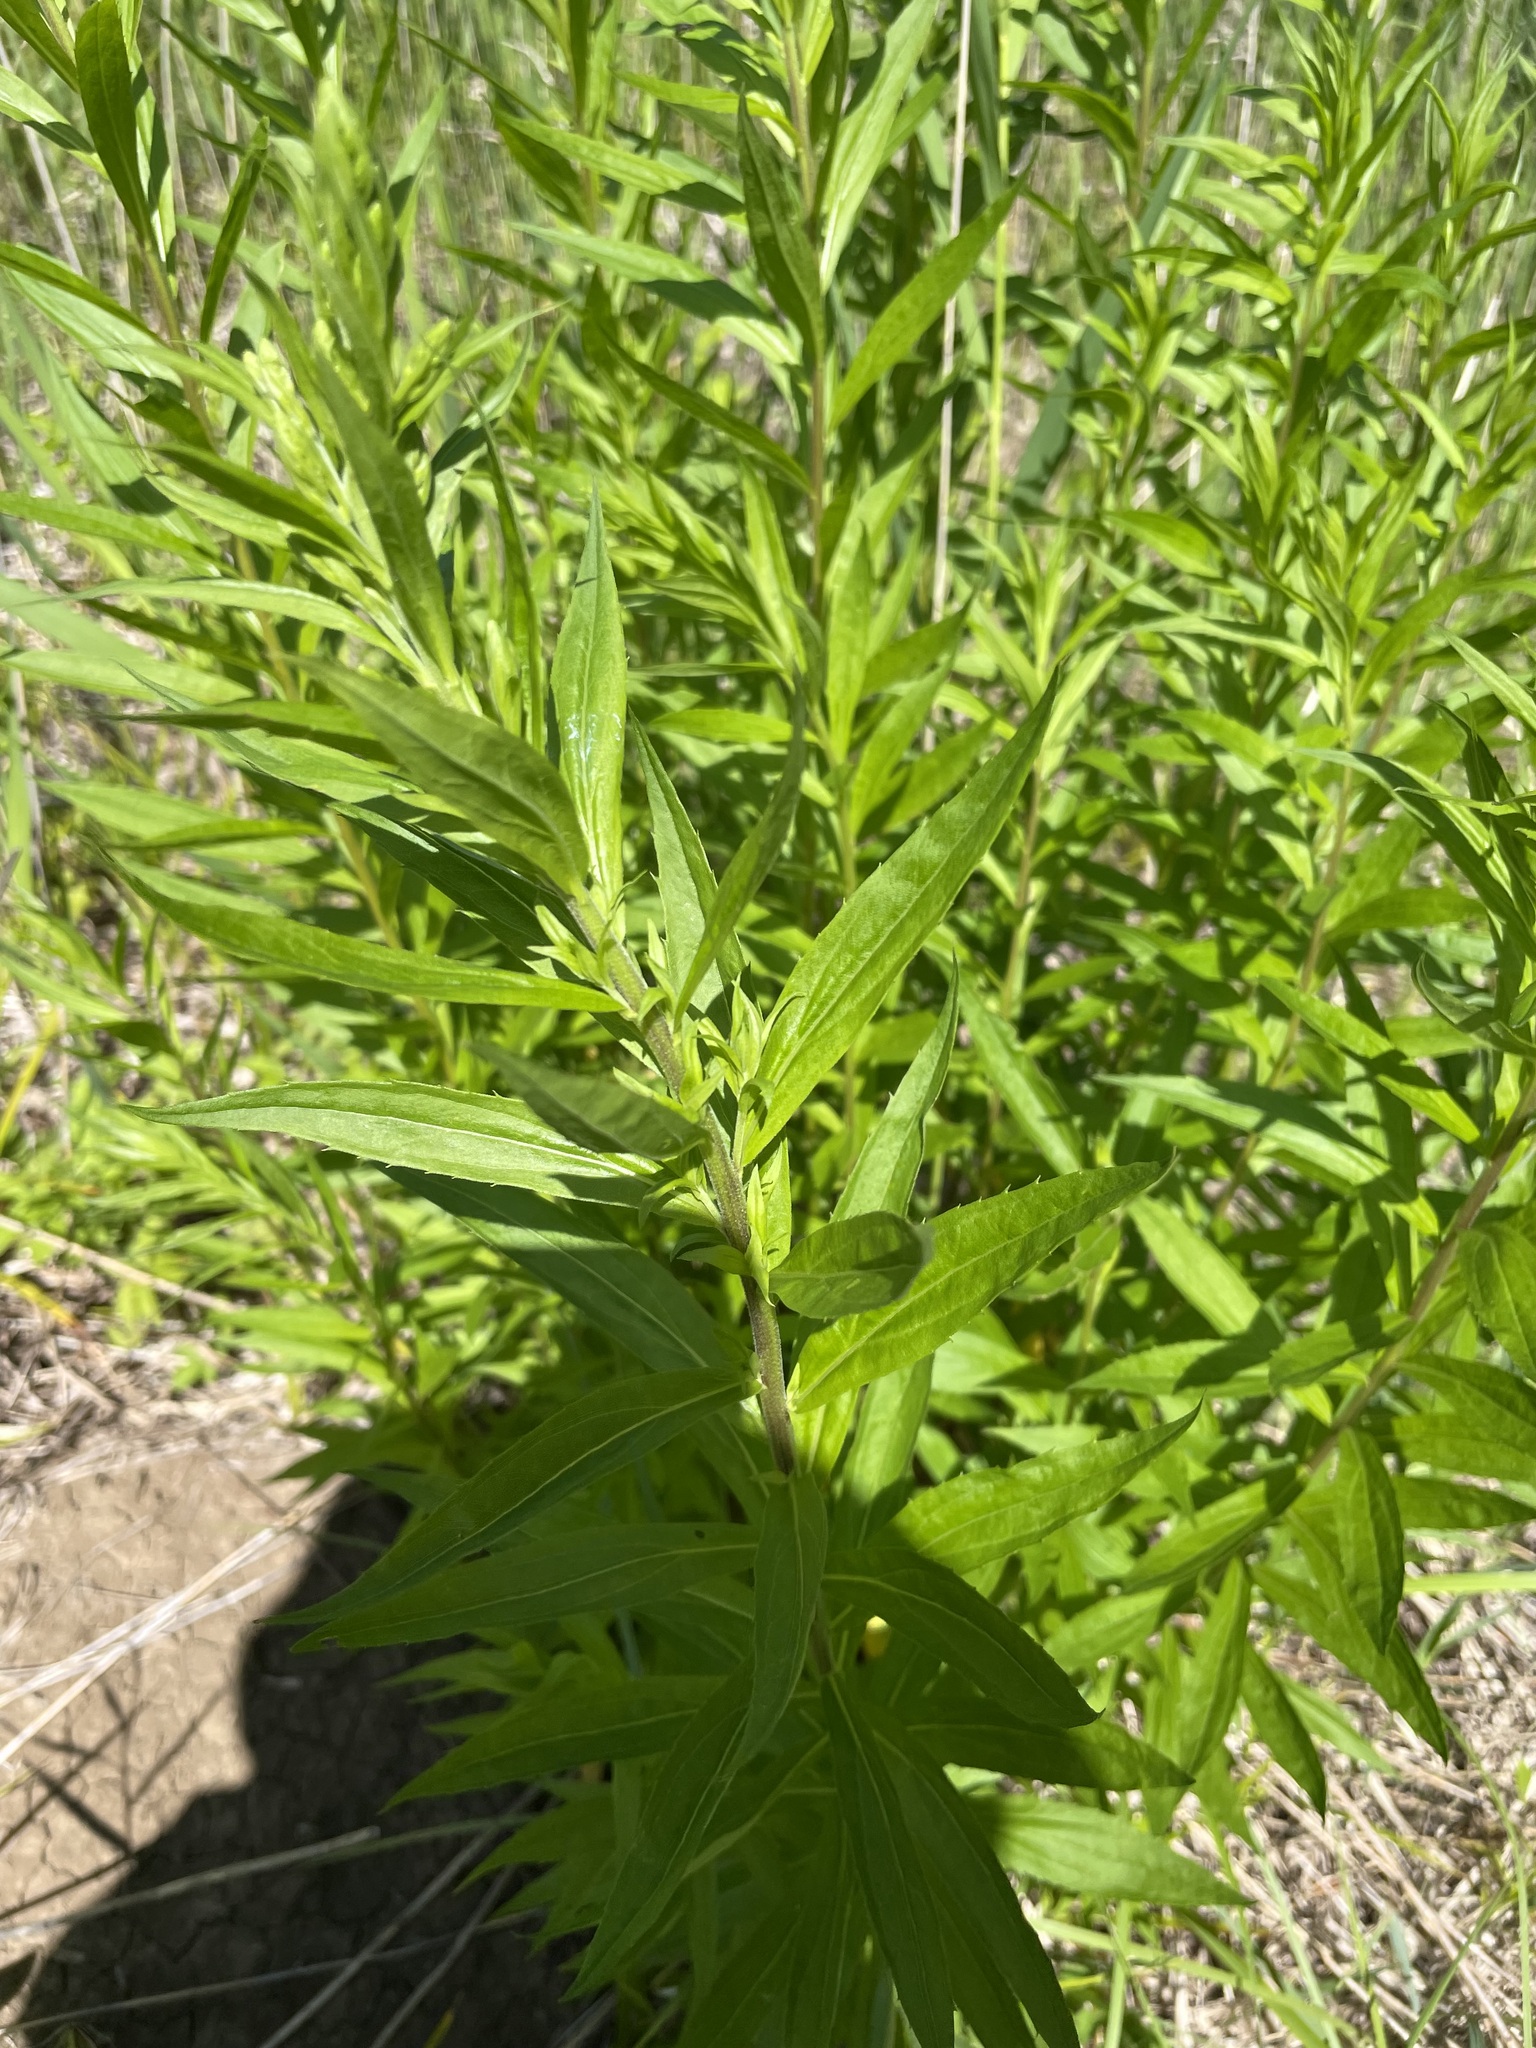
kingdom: Plantae
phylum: Tracheophyta
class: Magnoliopsida
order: Asterales
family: Asteraceae
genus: Solidago
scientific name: Solidago canadensis
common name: Canada goldenrod
